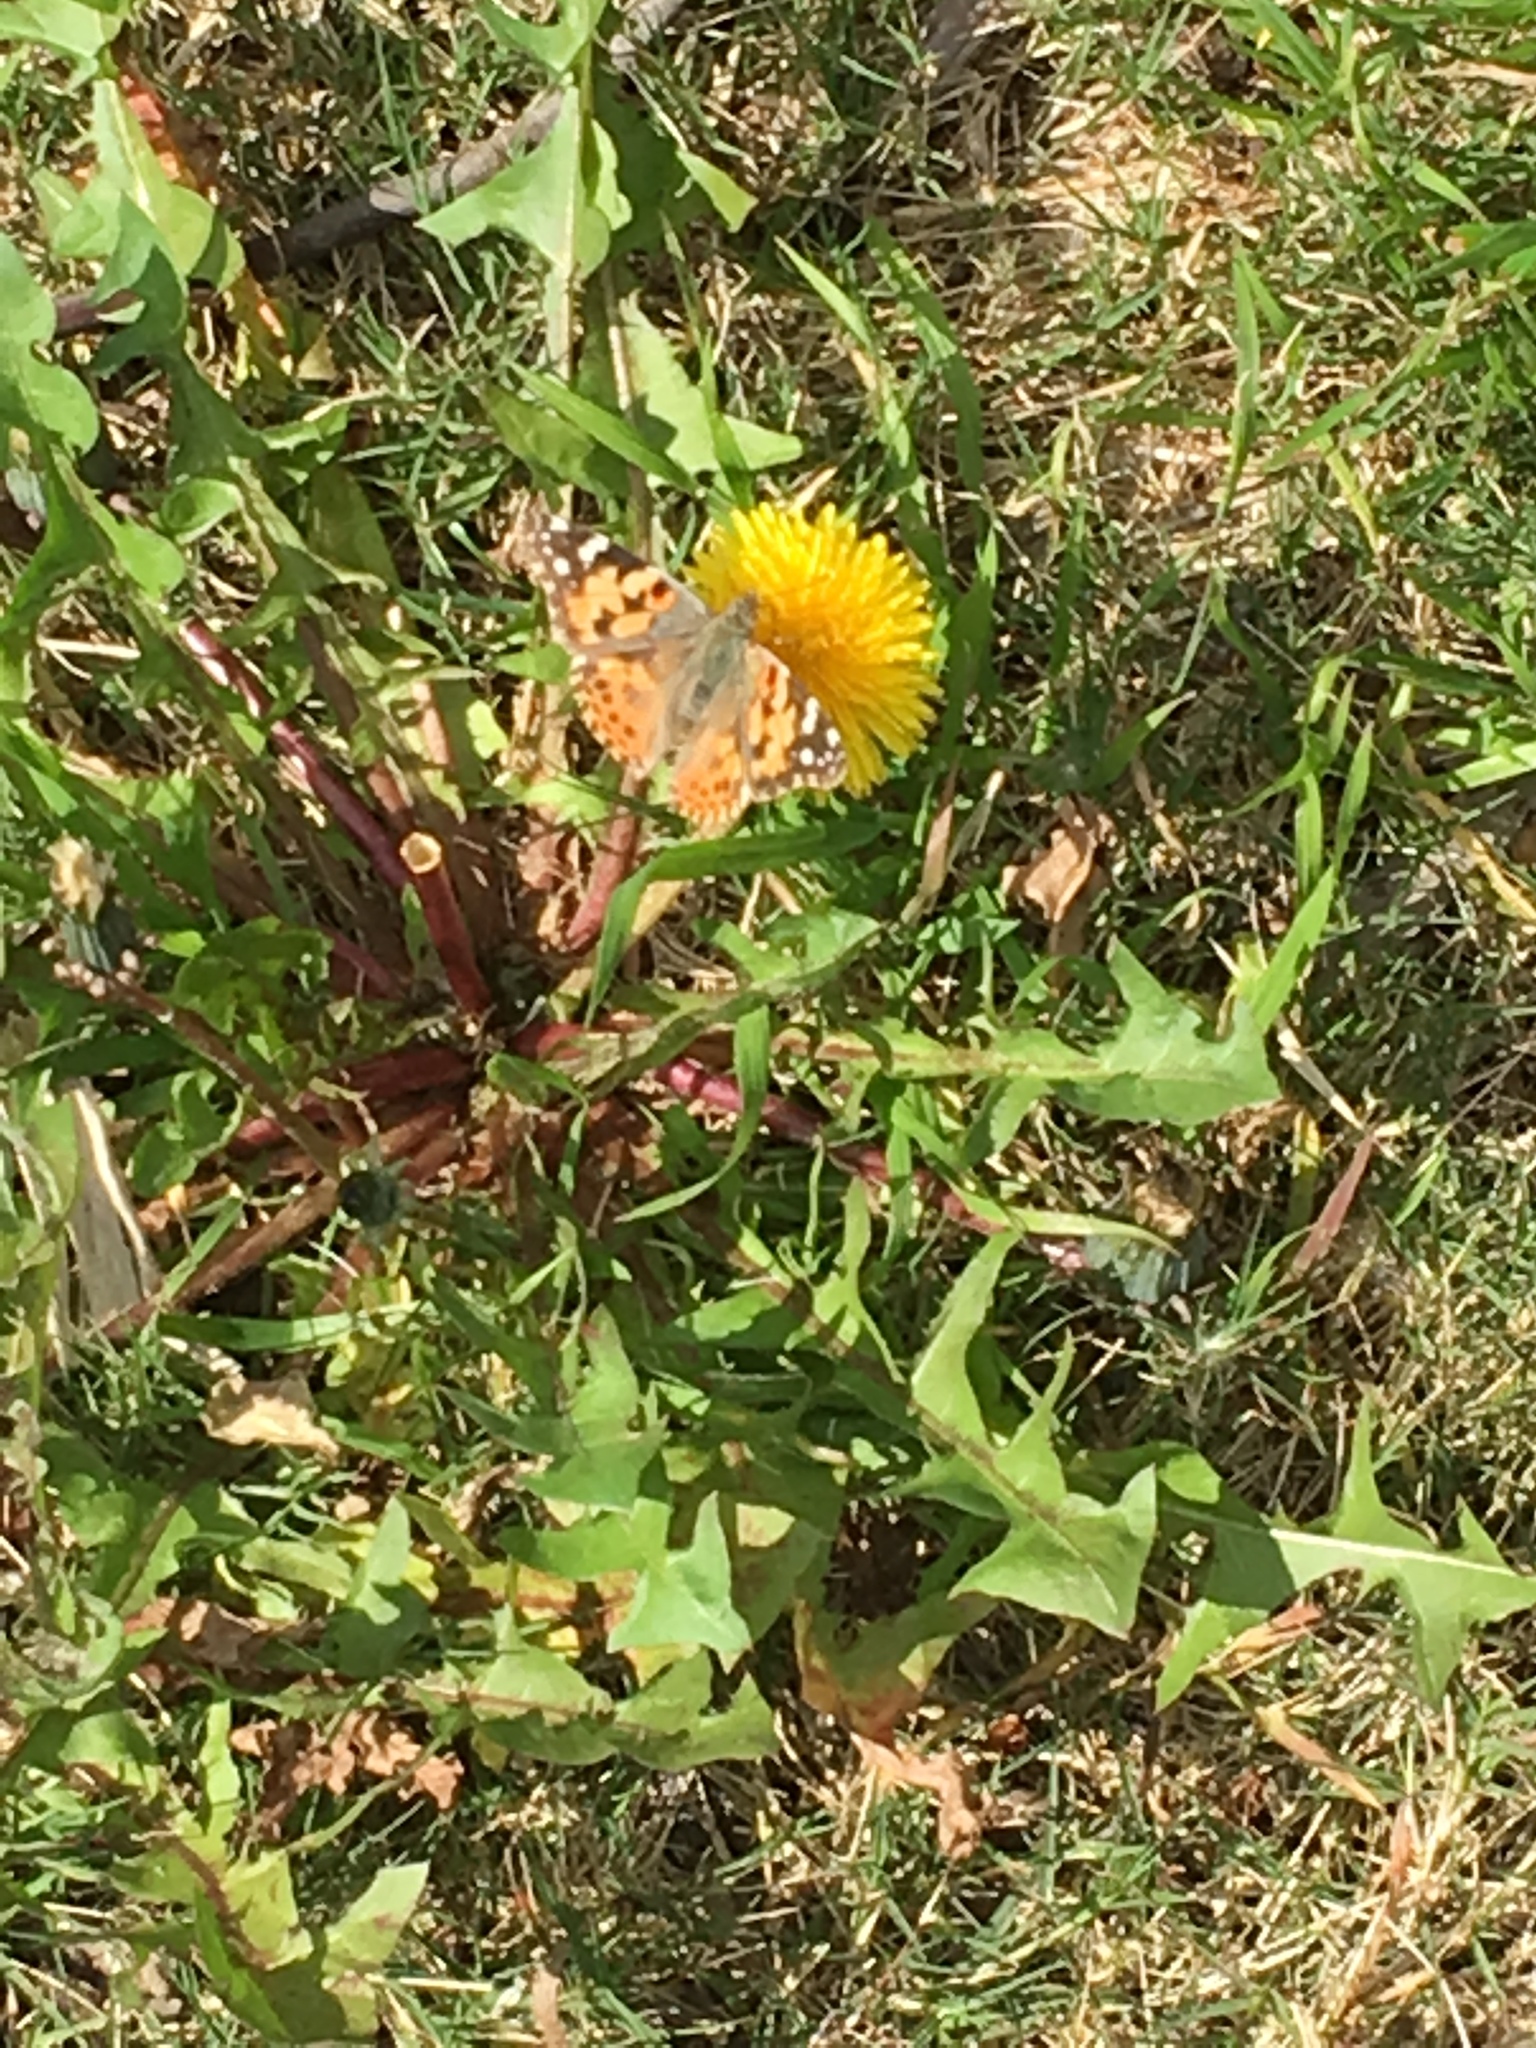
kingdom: Animalia
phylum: Arthropoda
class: Insecta
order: Lepidoptera
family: Nymphalidae
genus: Vanessa
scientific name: Vanessa cardui
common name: Painted lady
